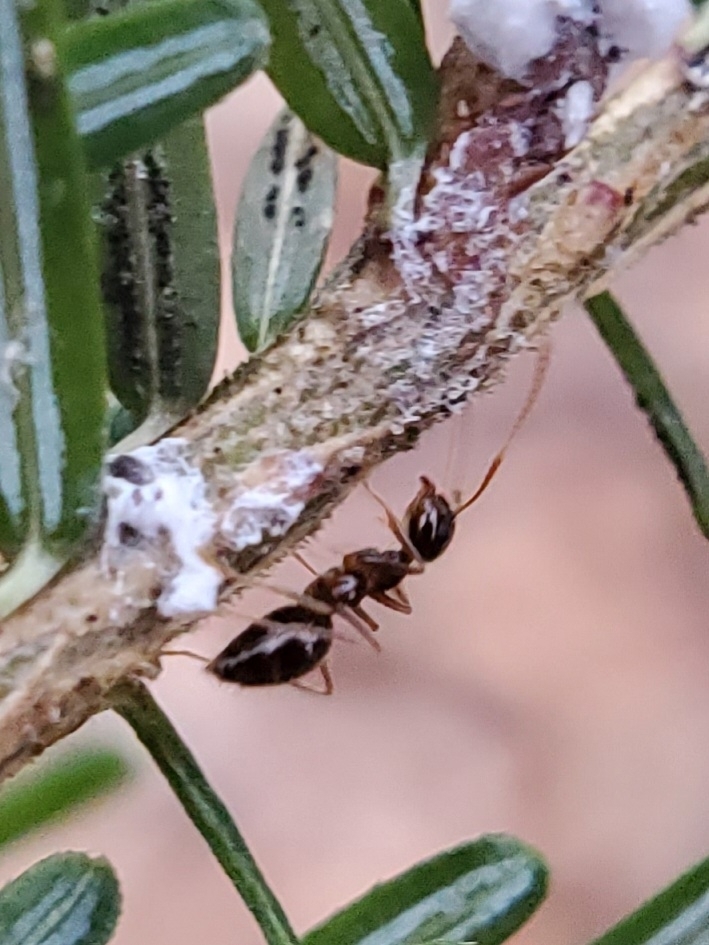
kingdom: Animalia
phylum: Arthropoda
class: Insecta
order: Hymenoptera
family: Formicidae
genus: Prenolepis
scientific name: Prenolepis imparis
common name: Small honey ant
